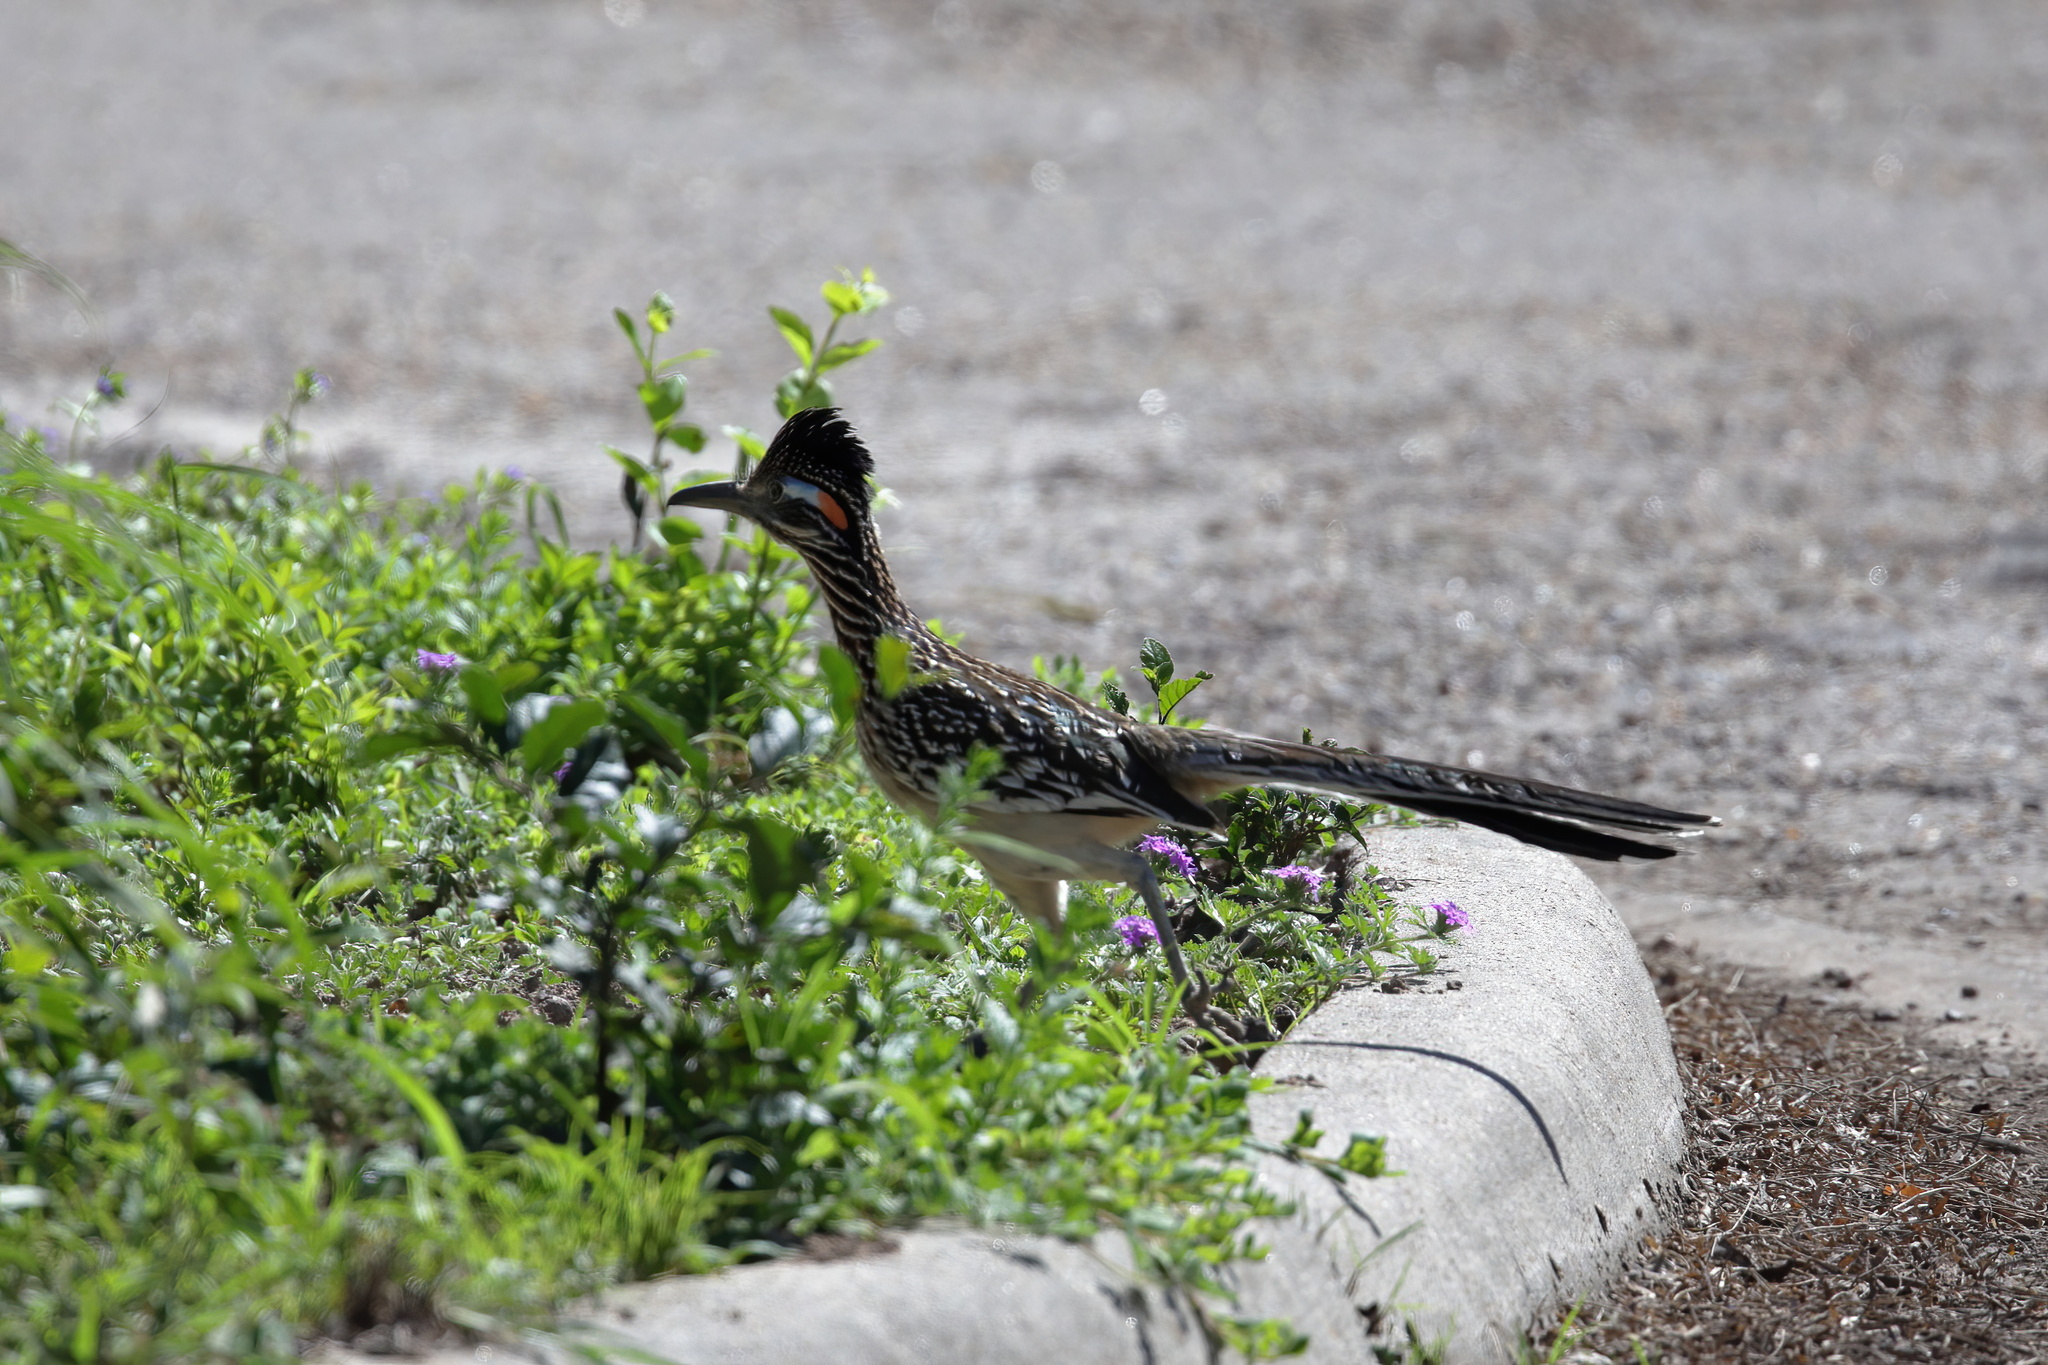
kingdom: Animalia
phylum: Chordata
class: Aves
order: Cuculiformes
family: Cuculidae
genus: Geococcyx
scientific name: Geococcyx californianus
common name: Greater roadrunner
